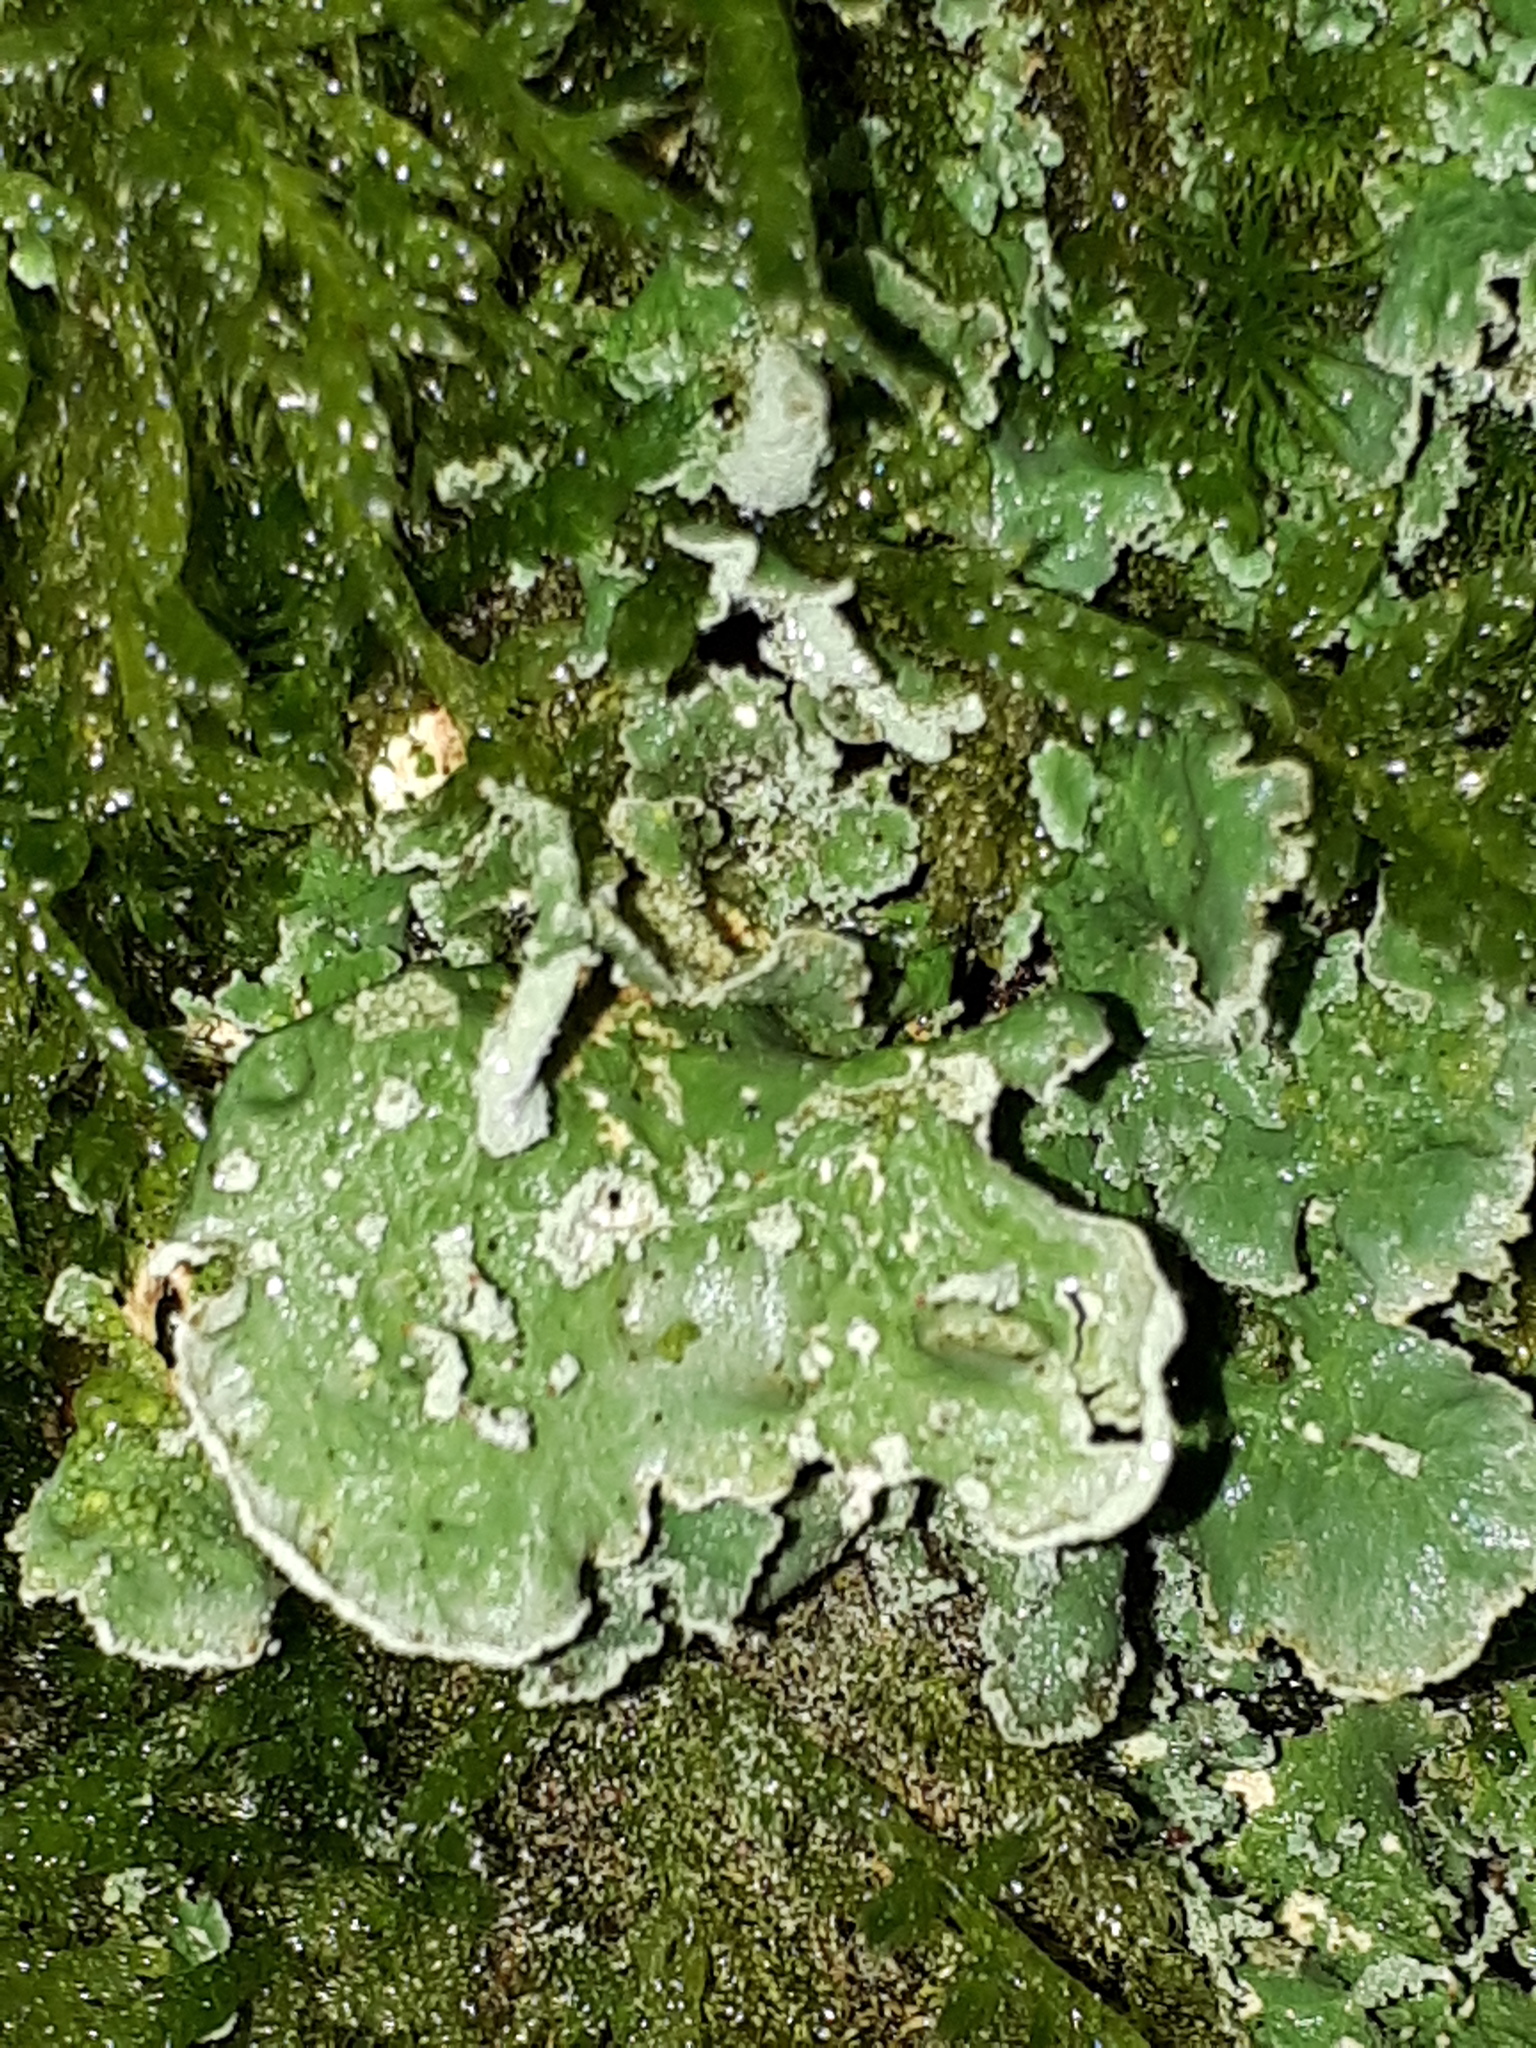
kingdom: Fungi
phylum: Ascomycota
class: Lecanoromycetes
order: Lecanorales
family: Cladoniaceae
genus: Cladonia
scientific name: Cladonia digitata
